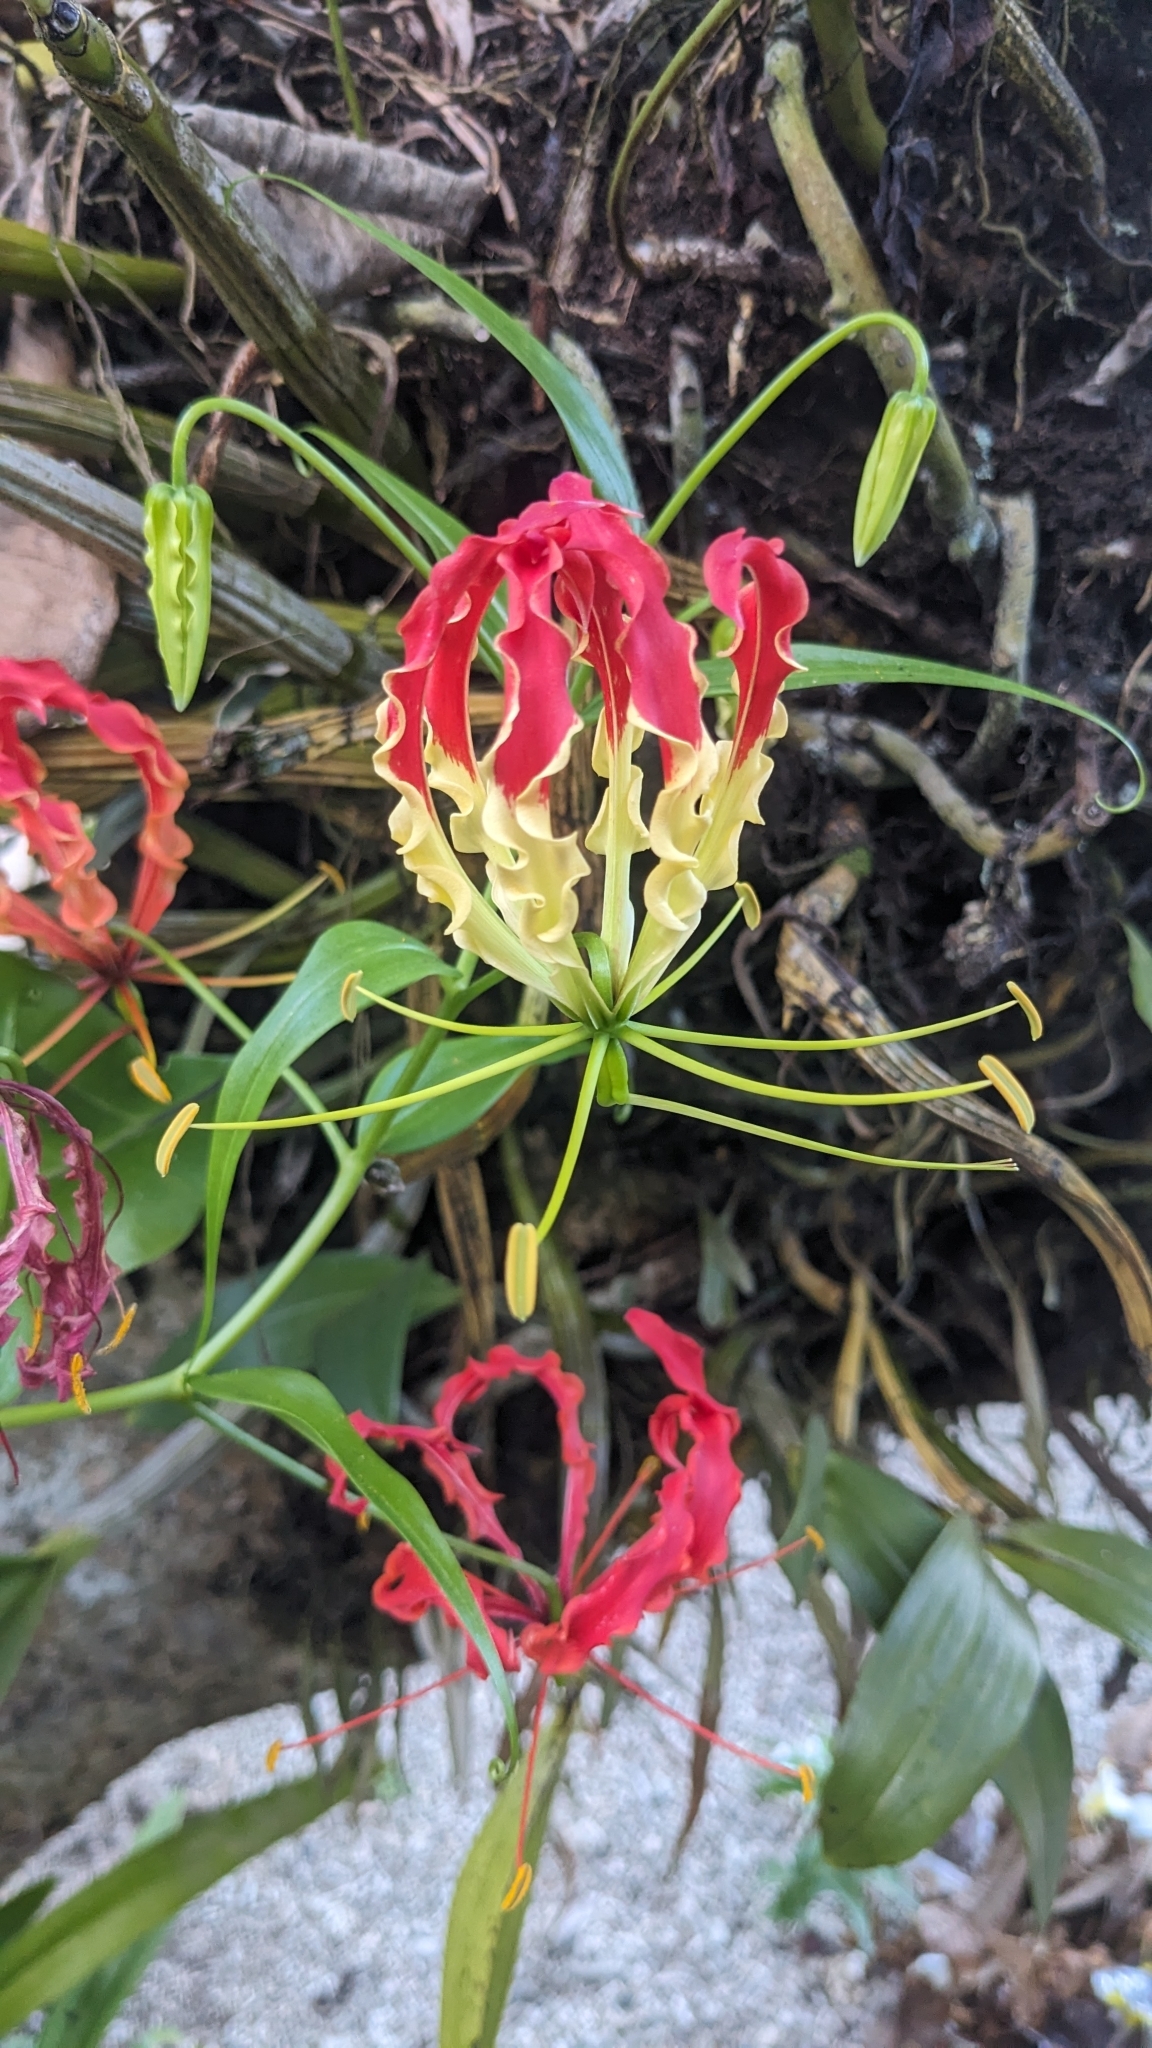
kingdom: Plantae
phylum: Tracheophyta
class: Liliopsida
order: Liliales
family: Colchicaceae
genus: Gloriosa
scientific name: Gloriosa superba
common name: Flame lily
